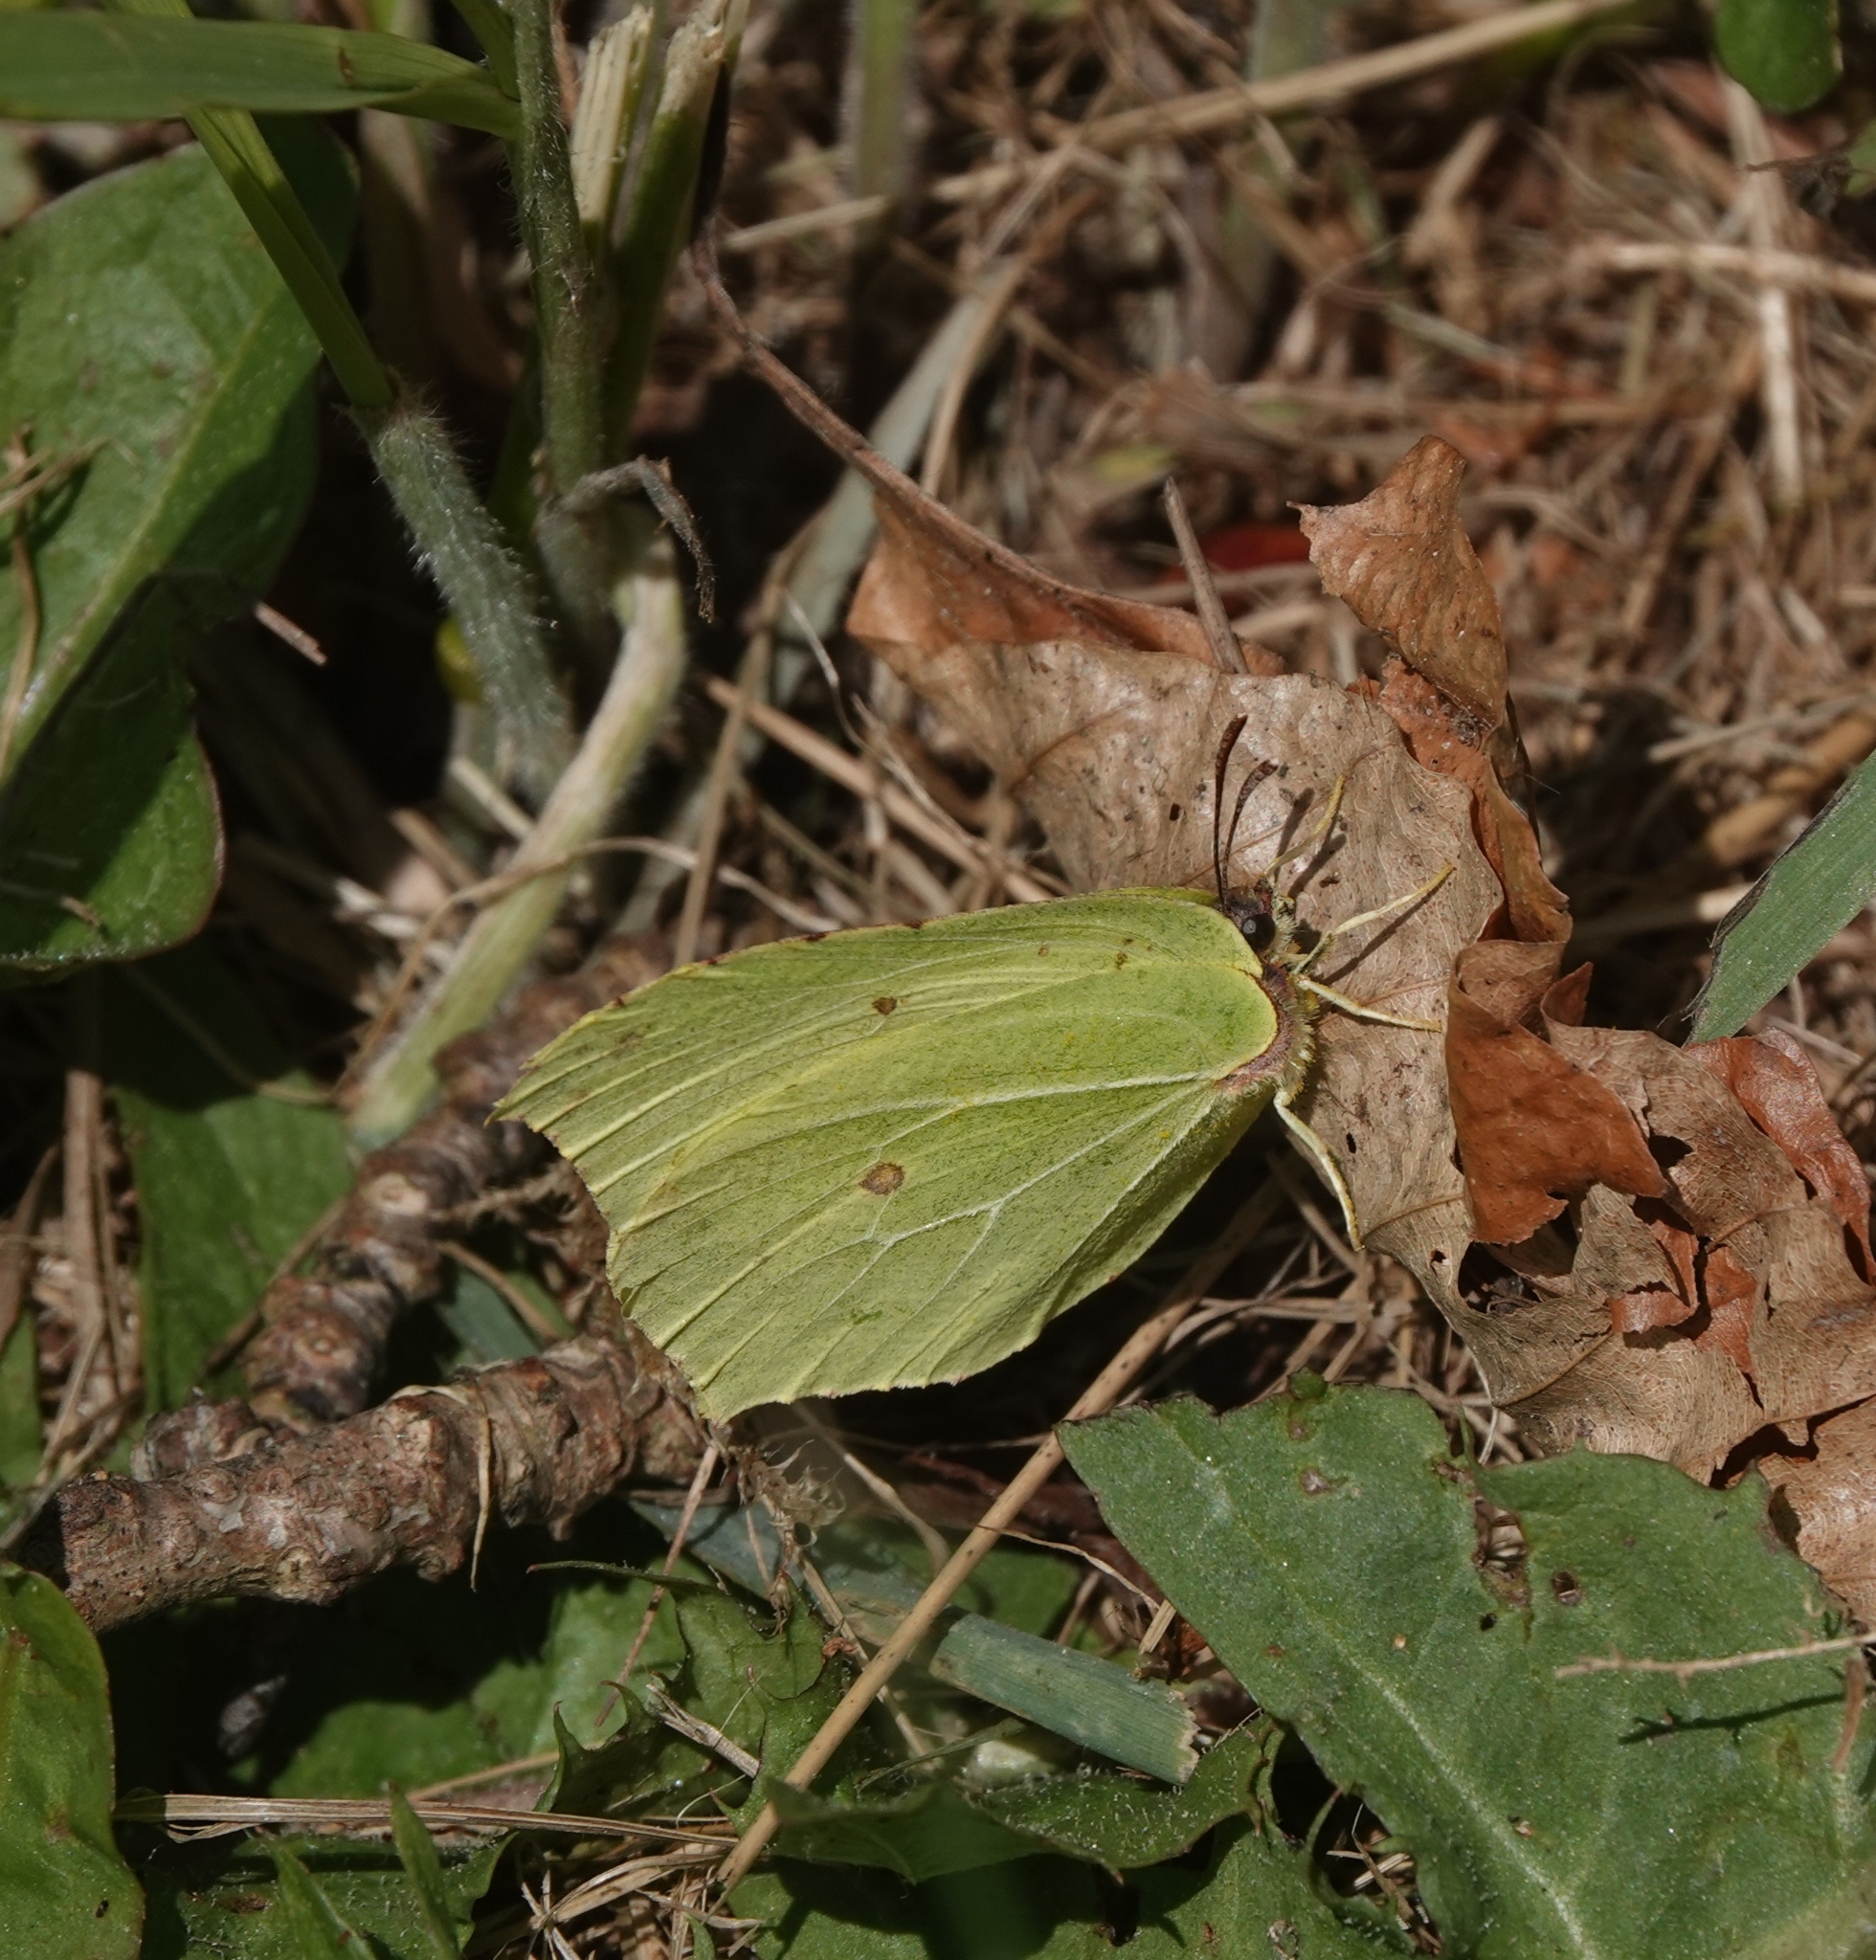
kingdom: Animalia
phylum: Arthropoda
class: Insecta
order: Lepidoptera
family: Pieridae
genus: Gonepteryx
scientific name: Gonepteryx rhamni
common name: Brimstone
